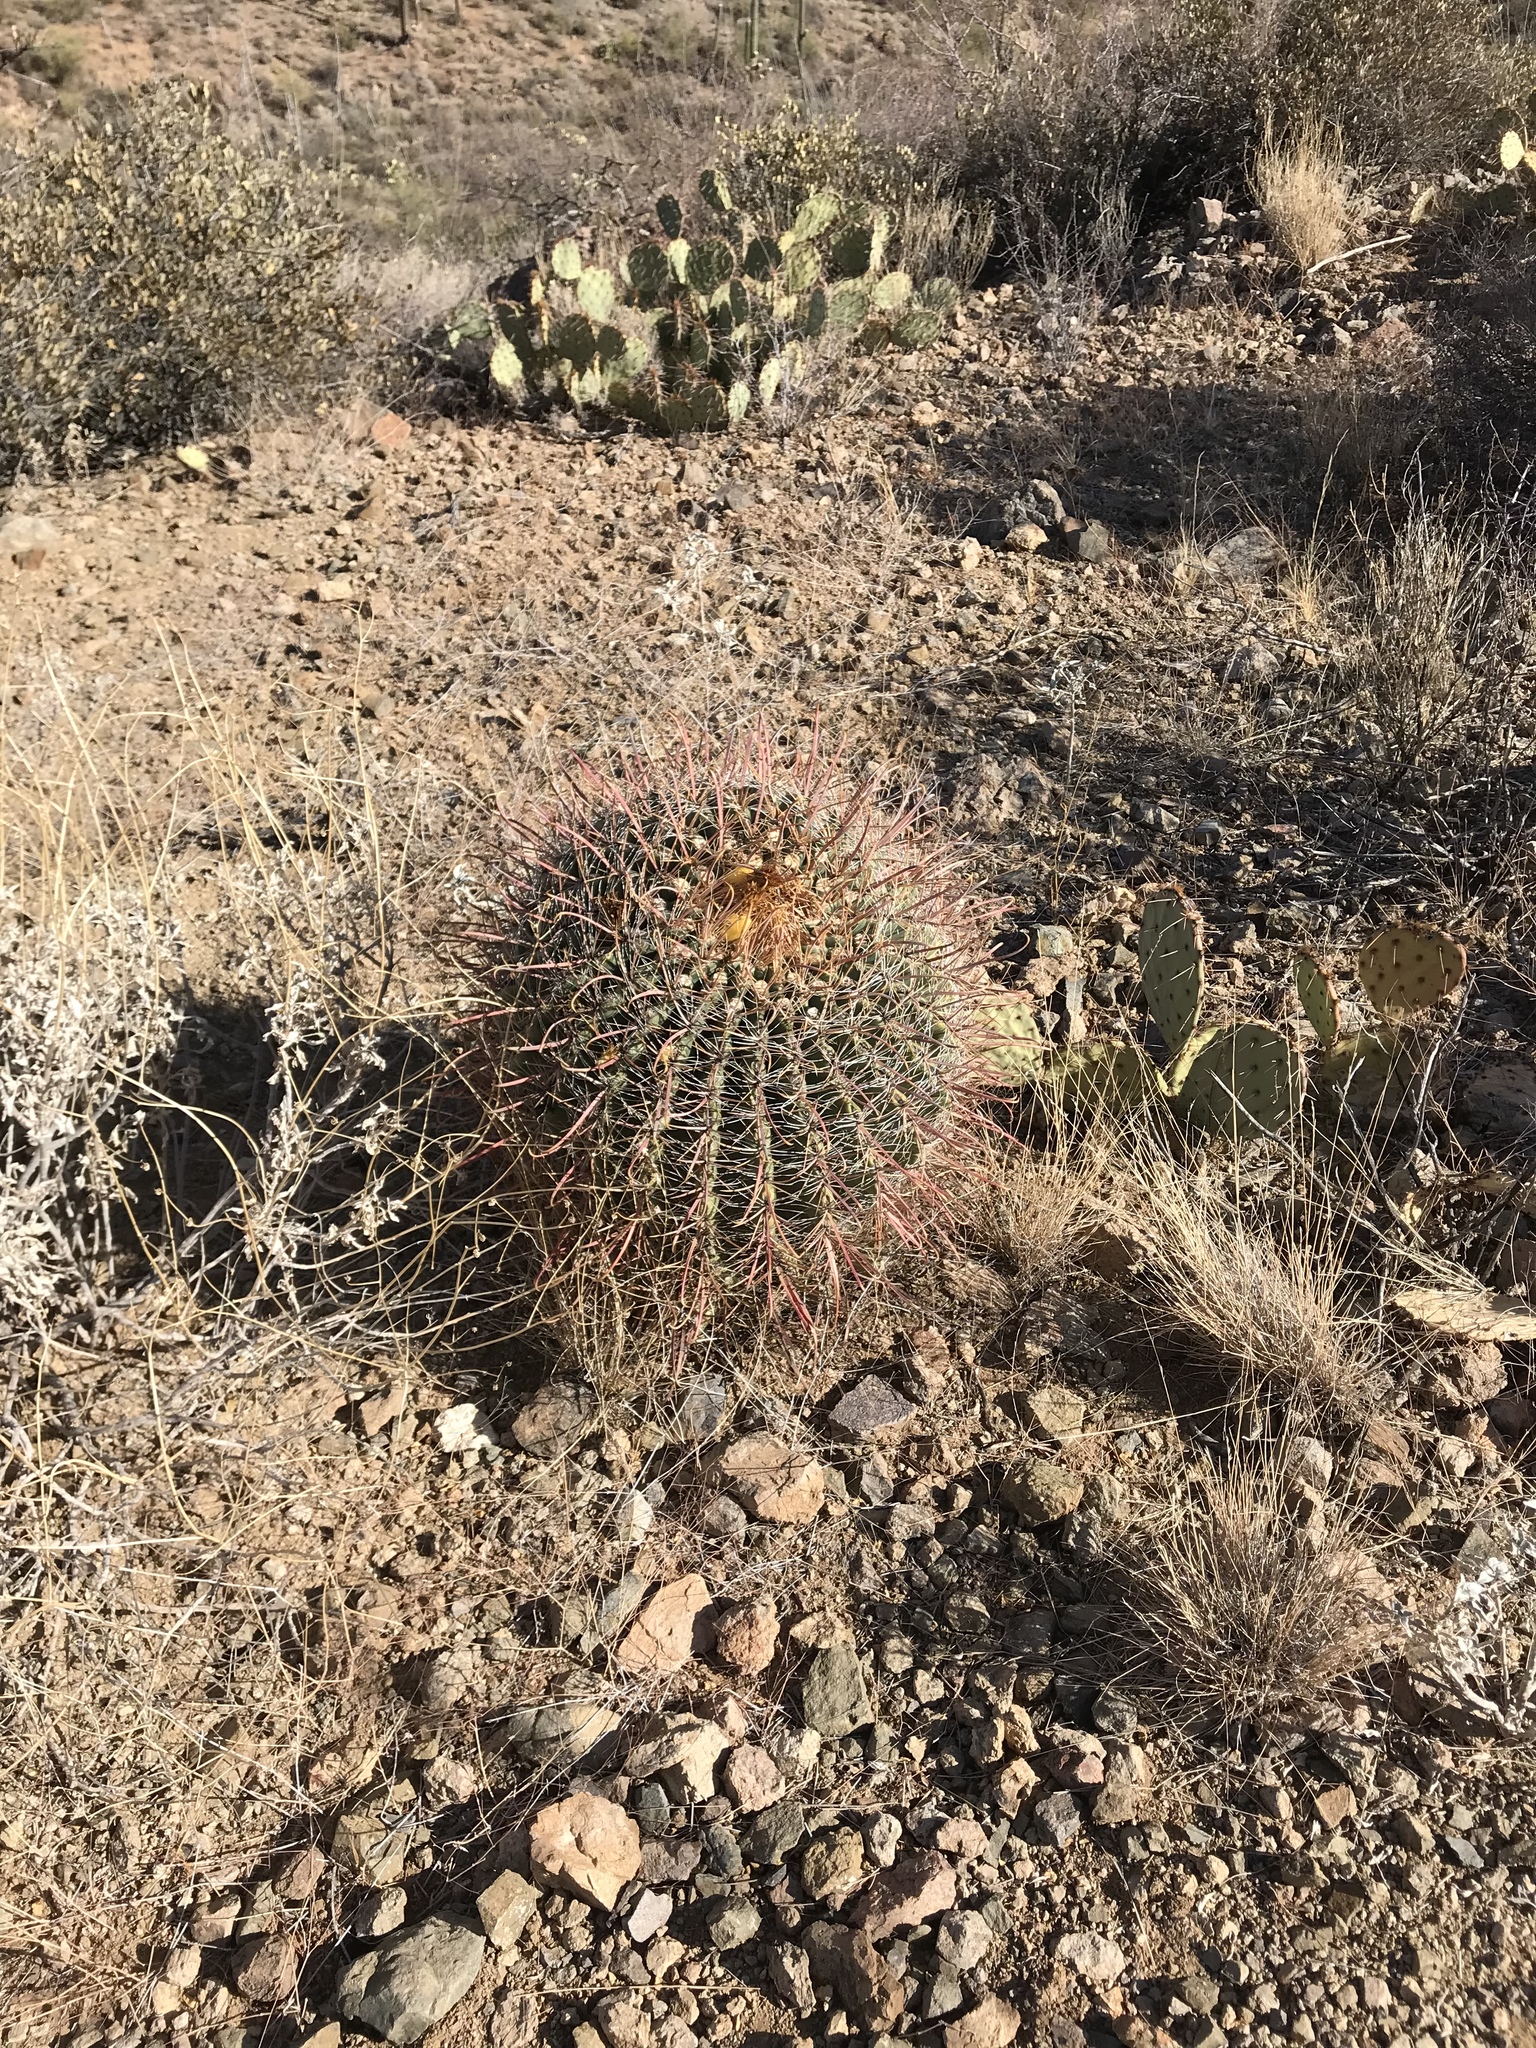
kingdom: Plantae
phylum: Tracheophyta
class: Magnoliopsida
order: Caryophyllales
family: Cactaceae
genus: Ferocactus
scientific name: Ferocactus wislizeni
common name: Candy barrel cactus
